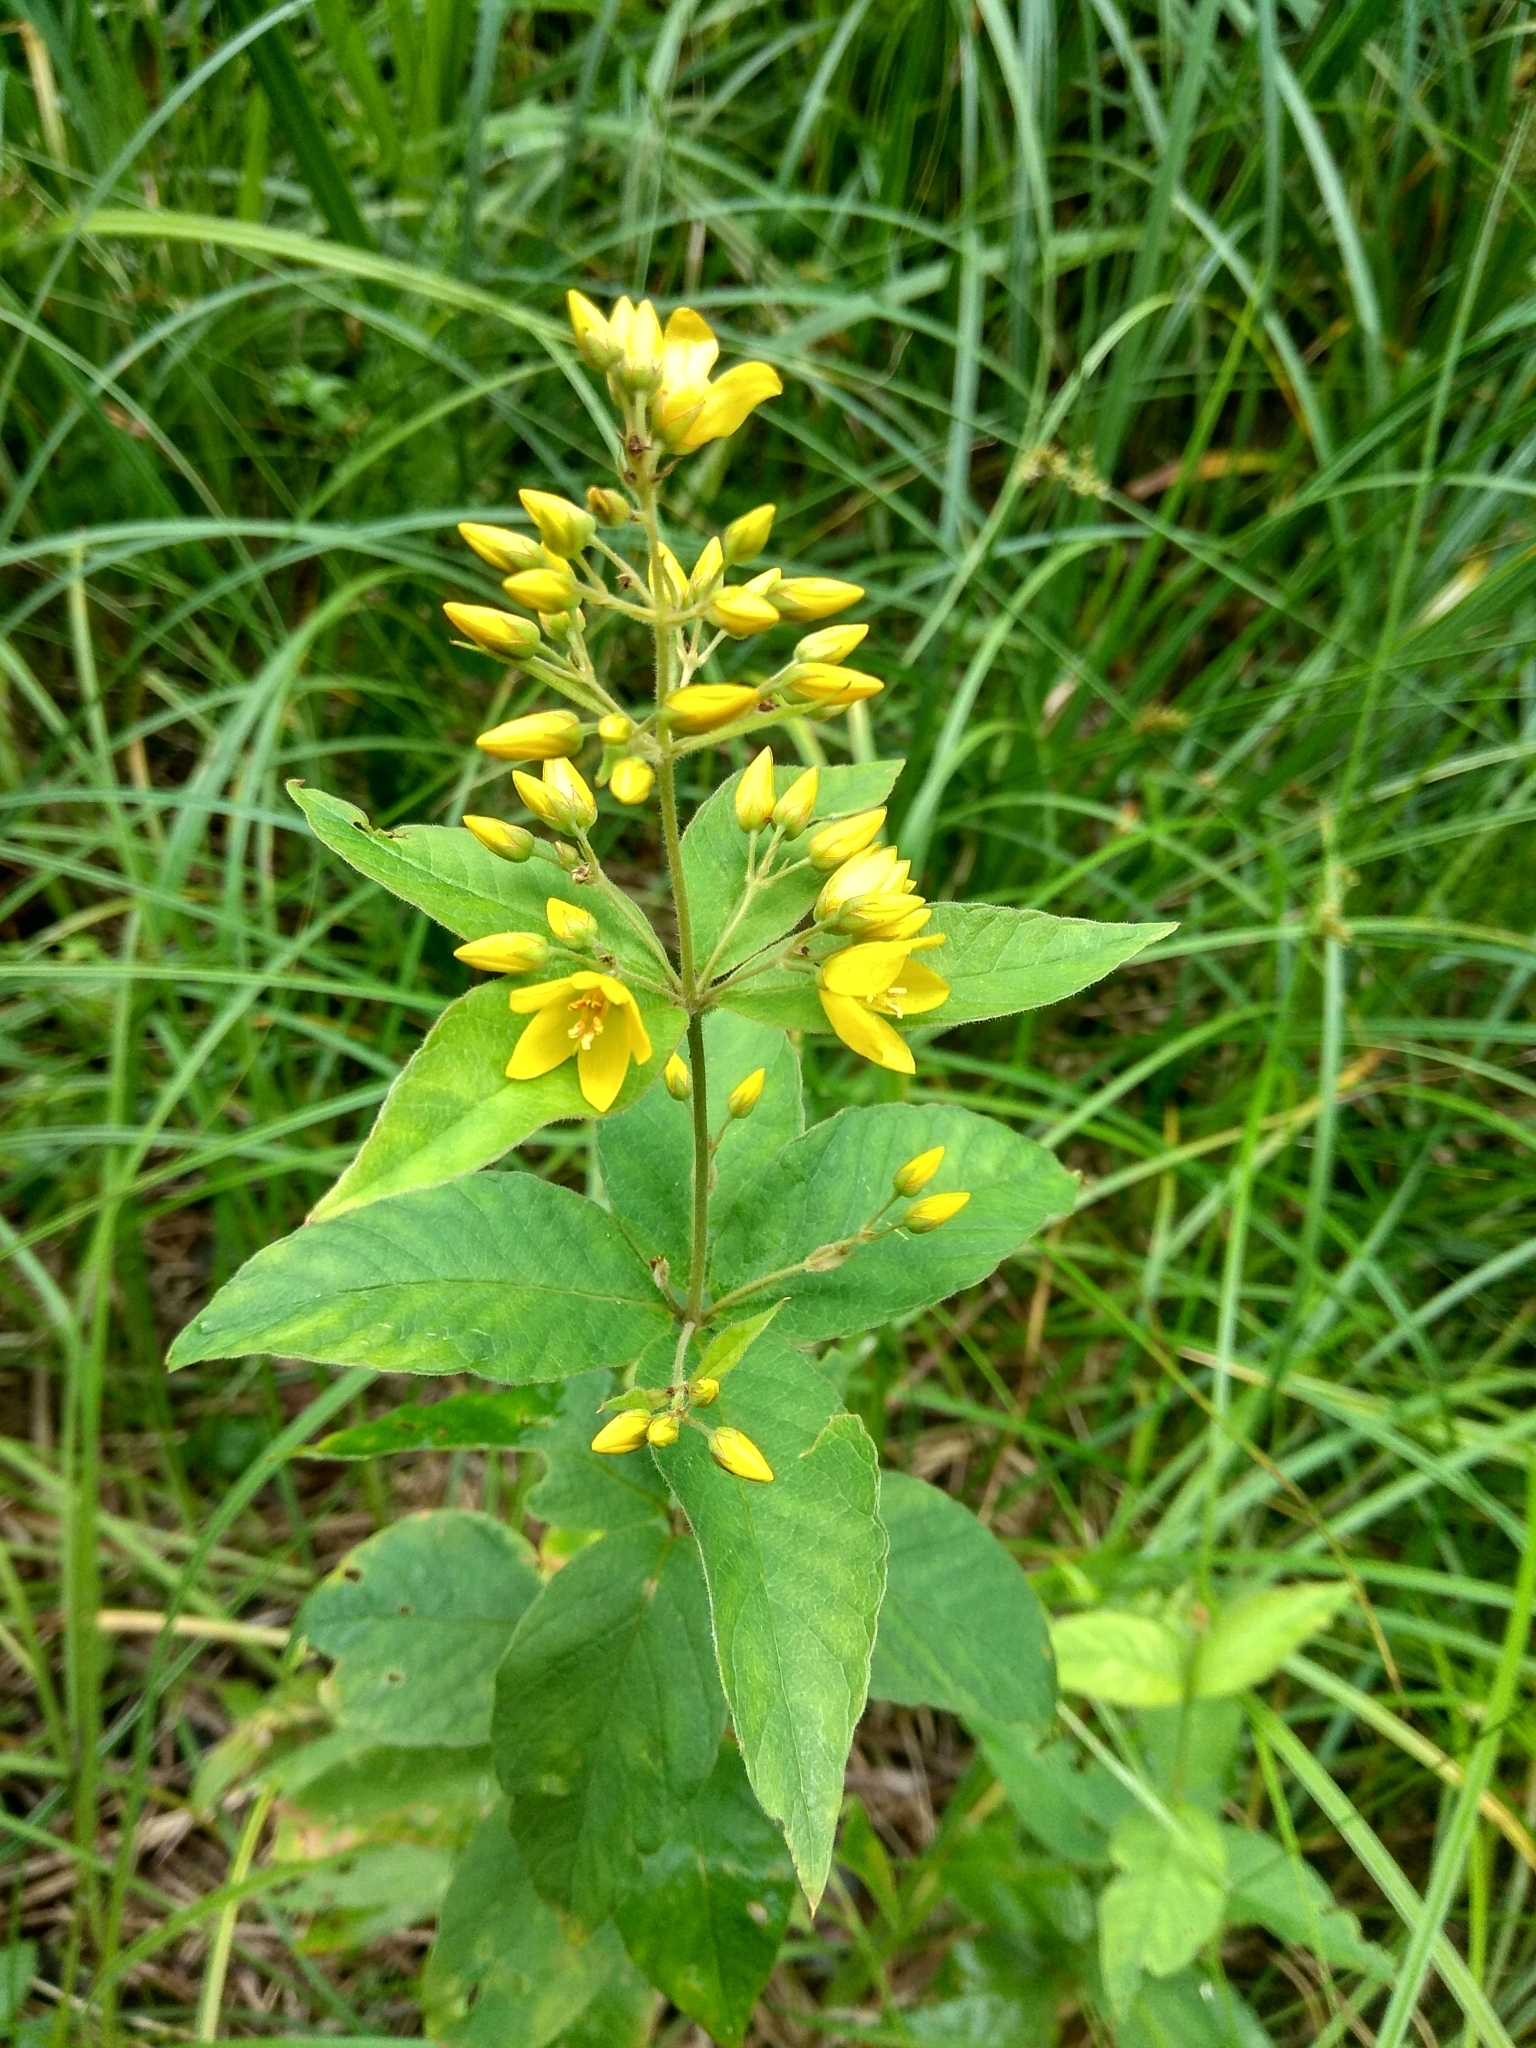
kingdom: Plantae
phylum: Tracheophyta
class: Magnoliopsida
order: Ericales
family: Primulaceae
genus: Lysimachia
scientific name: Lysimachia vulgaris
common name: Yellow loosestrife
